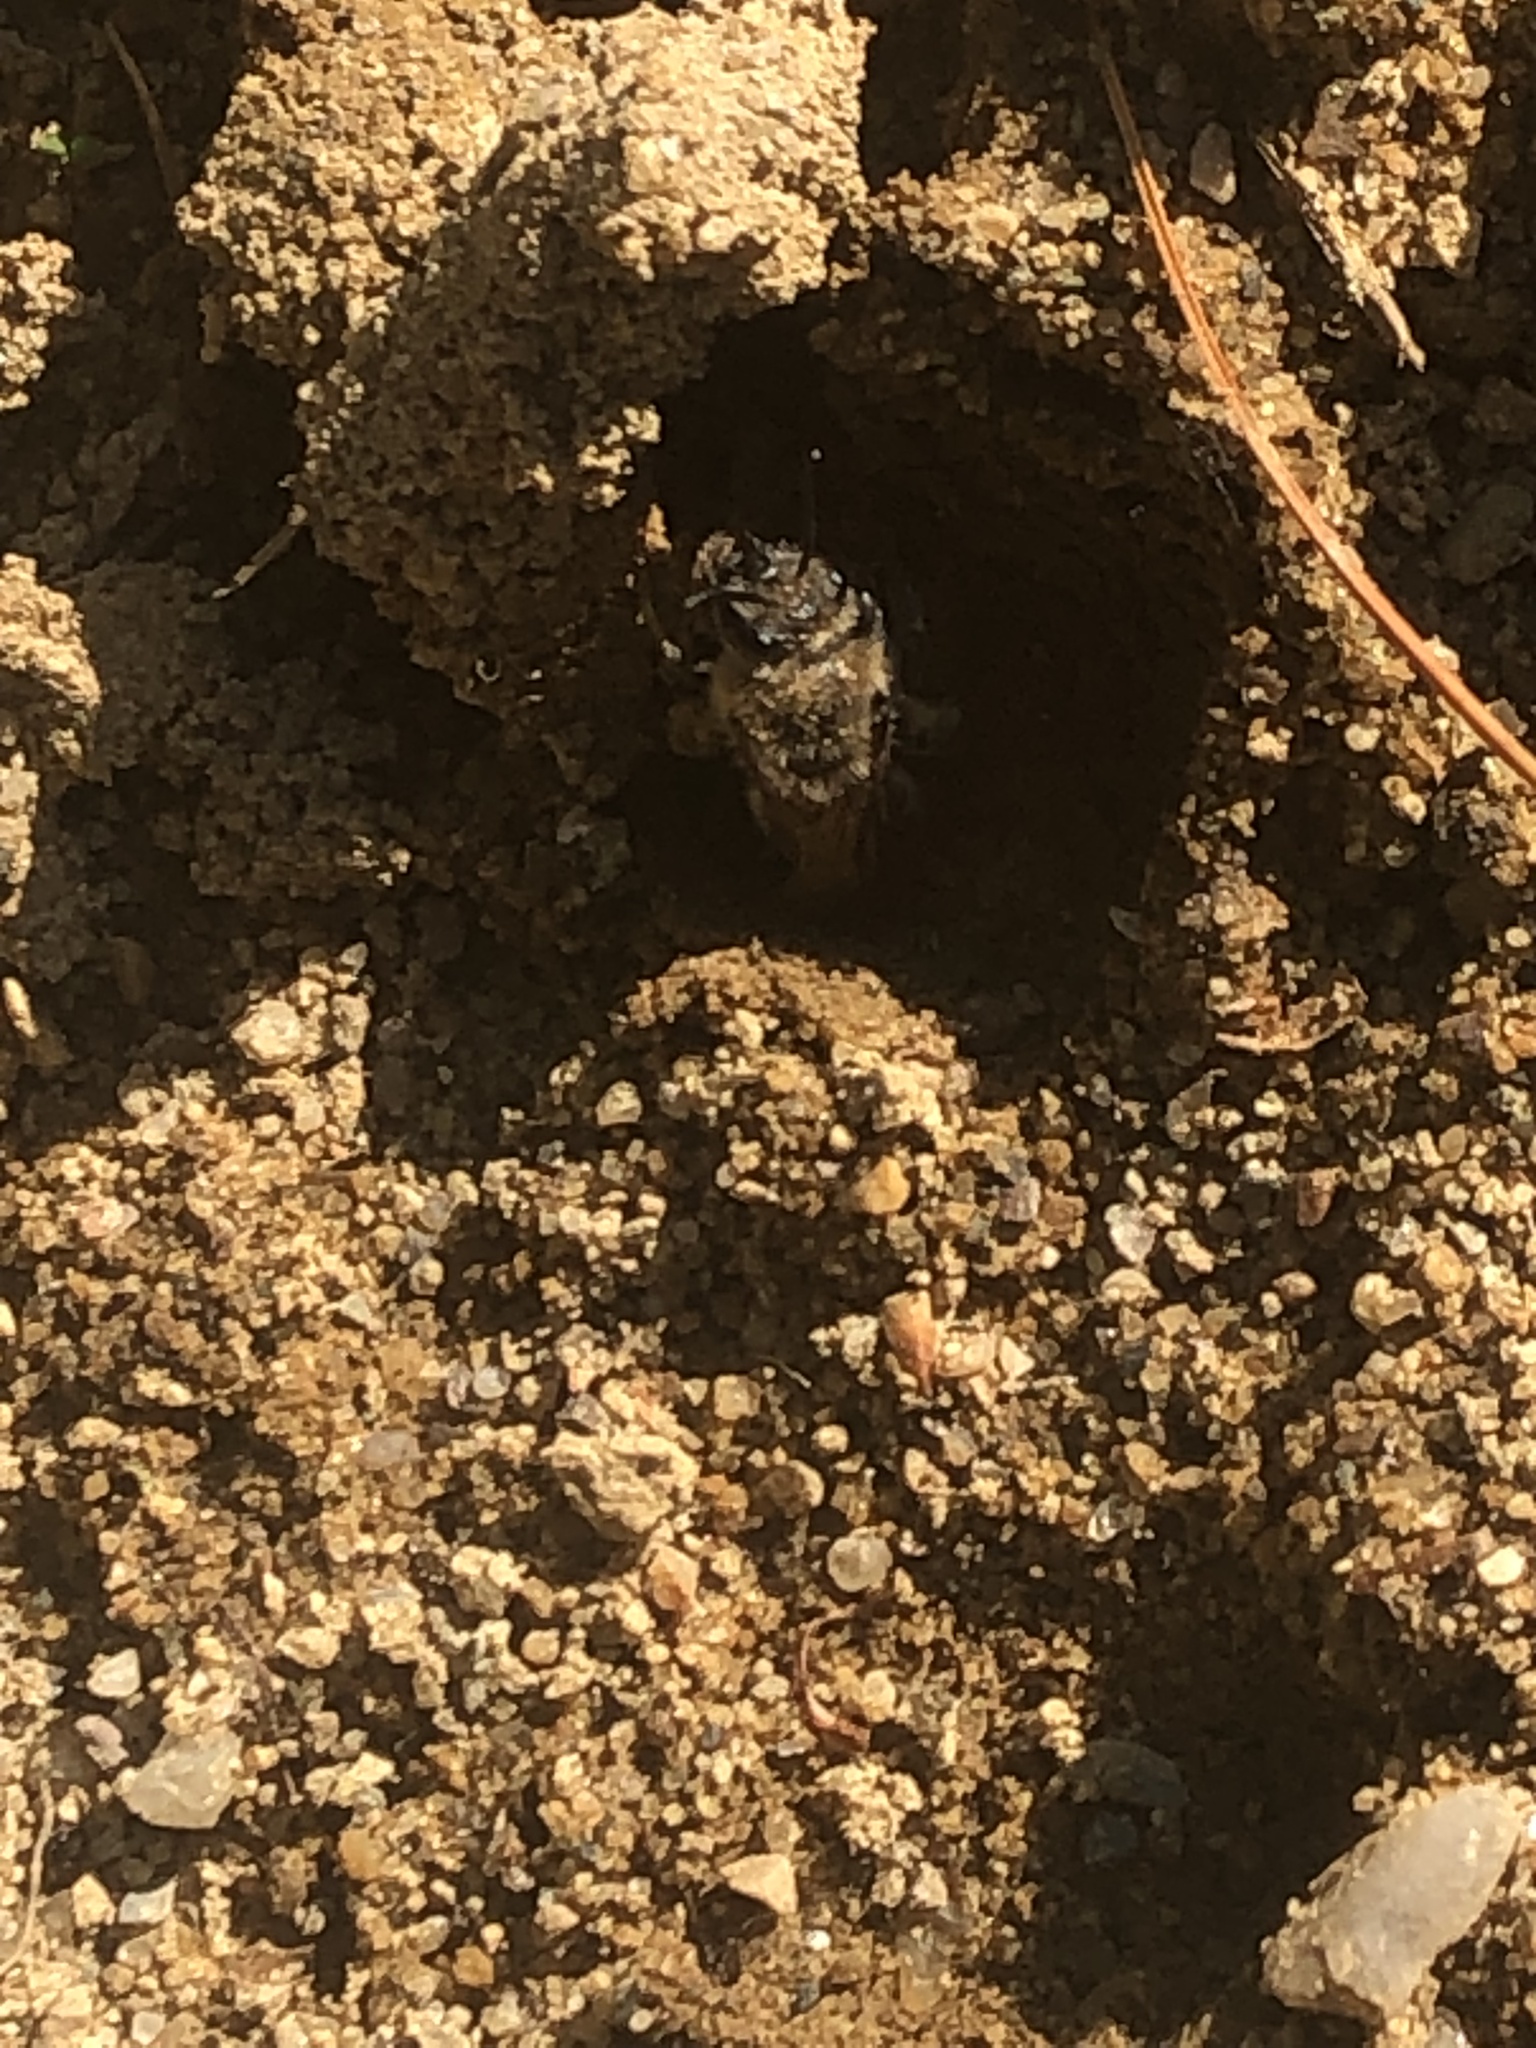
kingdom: Animalia
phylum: Arthropoda
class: Insecta
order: Hymenoptera
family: Colletidae
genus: Colletes
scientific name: Colletes inaequalis
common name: Unequal cellophane bee
